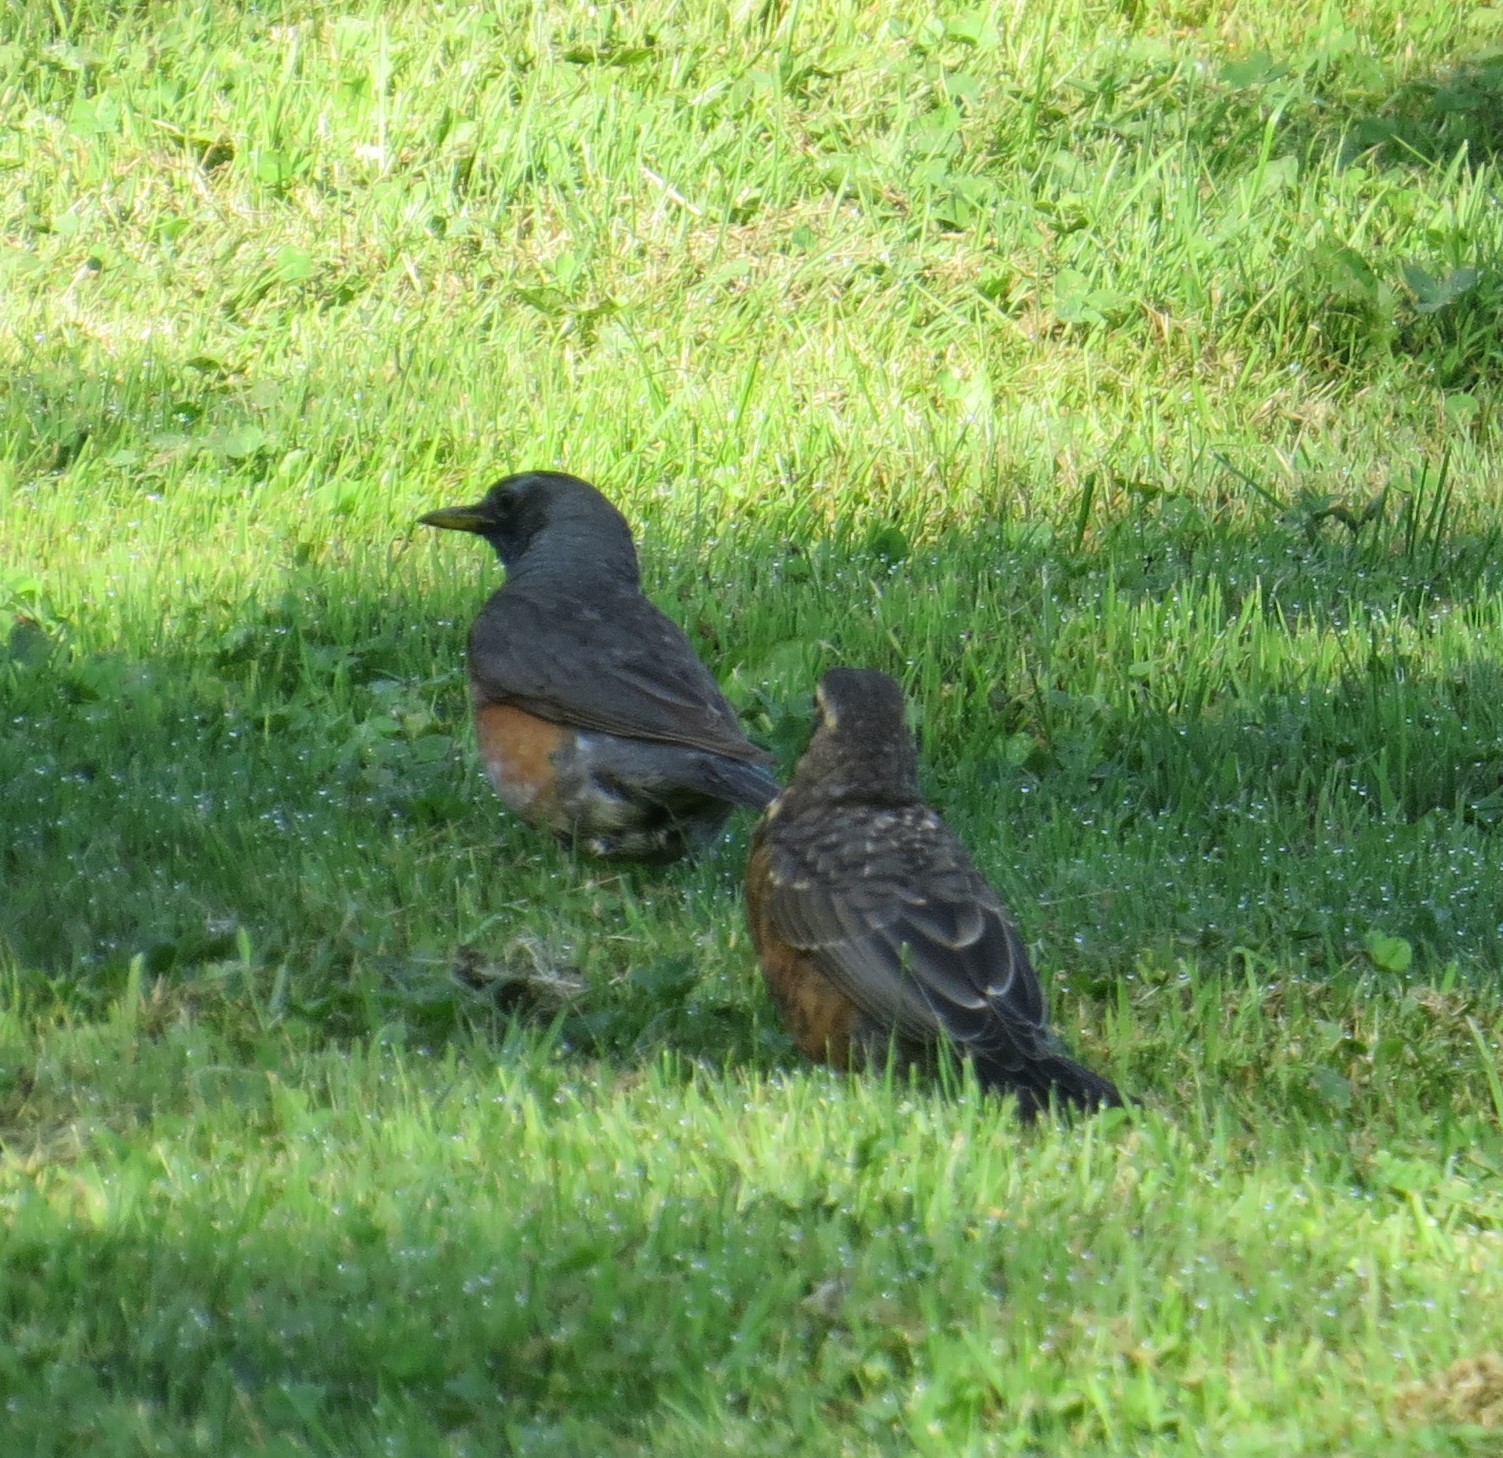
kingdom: Animalia
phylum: Chordata
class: Aves
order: Passeriformes
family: Turdidae
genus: Turdus
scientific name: Turdus migratorius
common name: American robin
